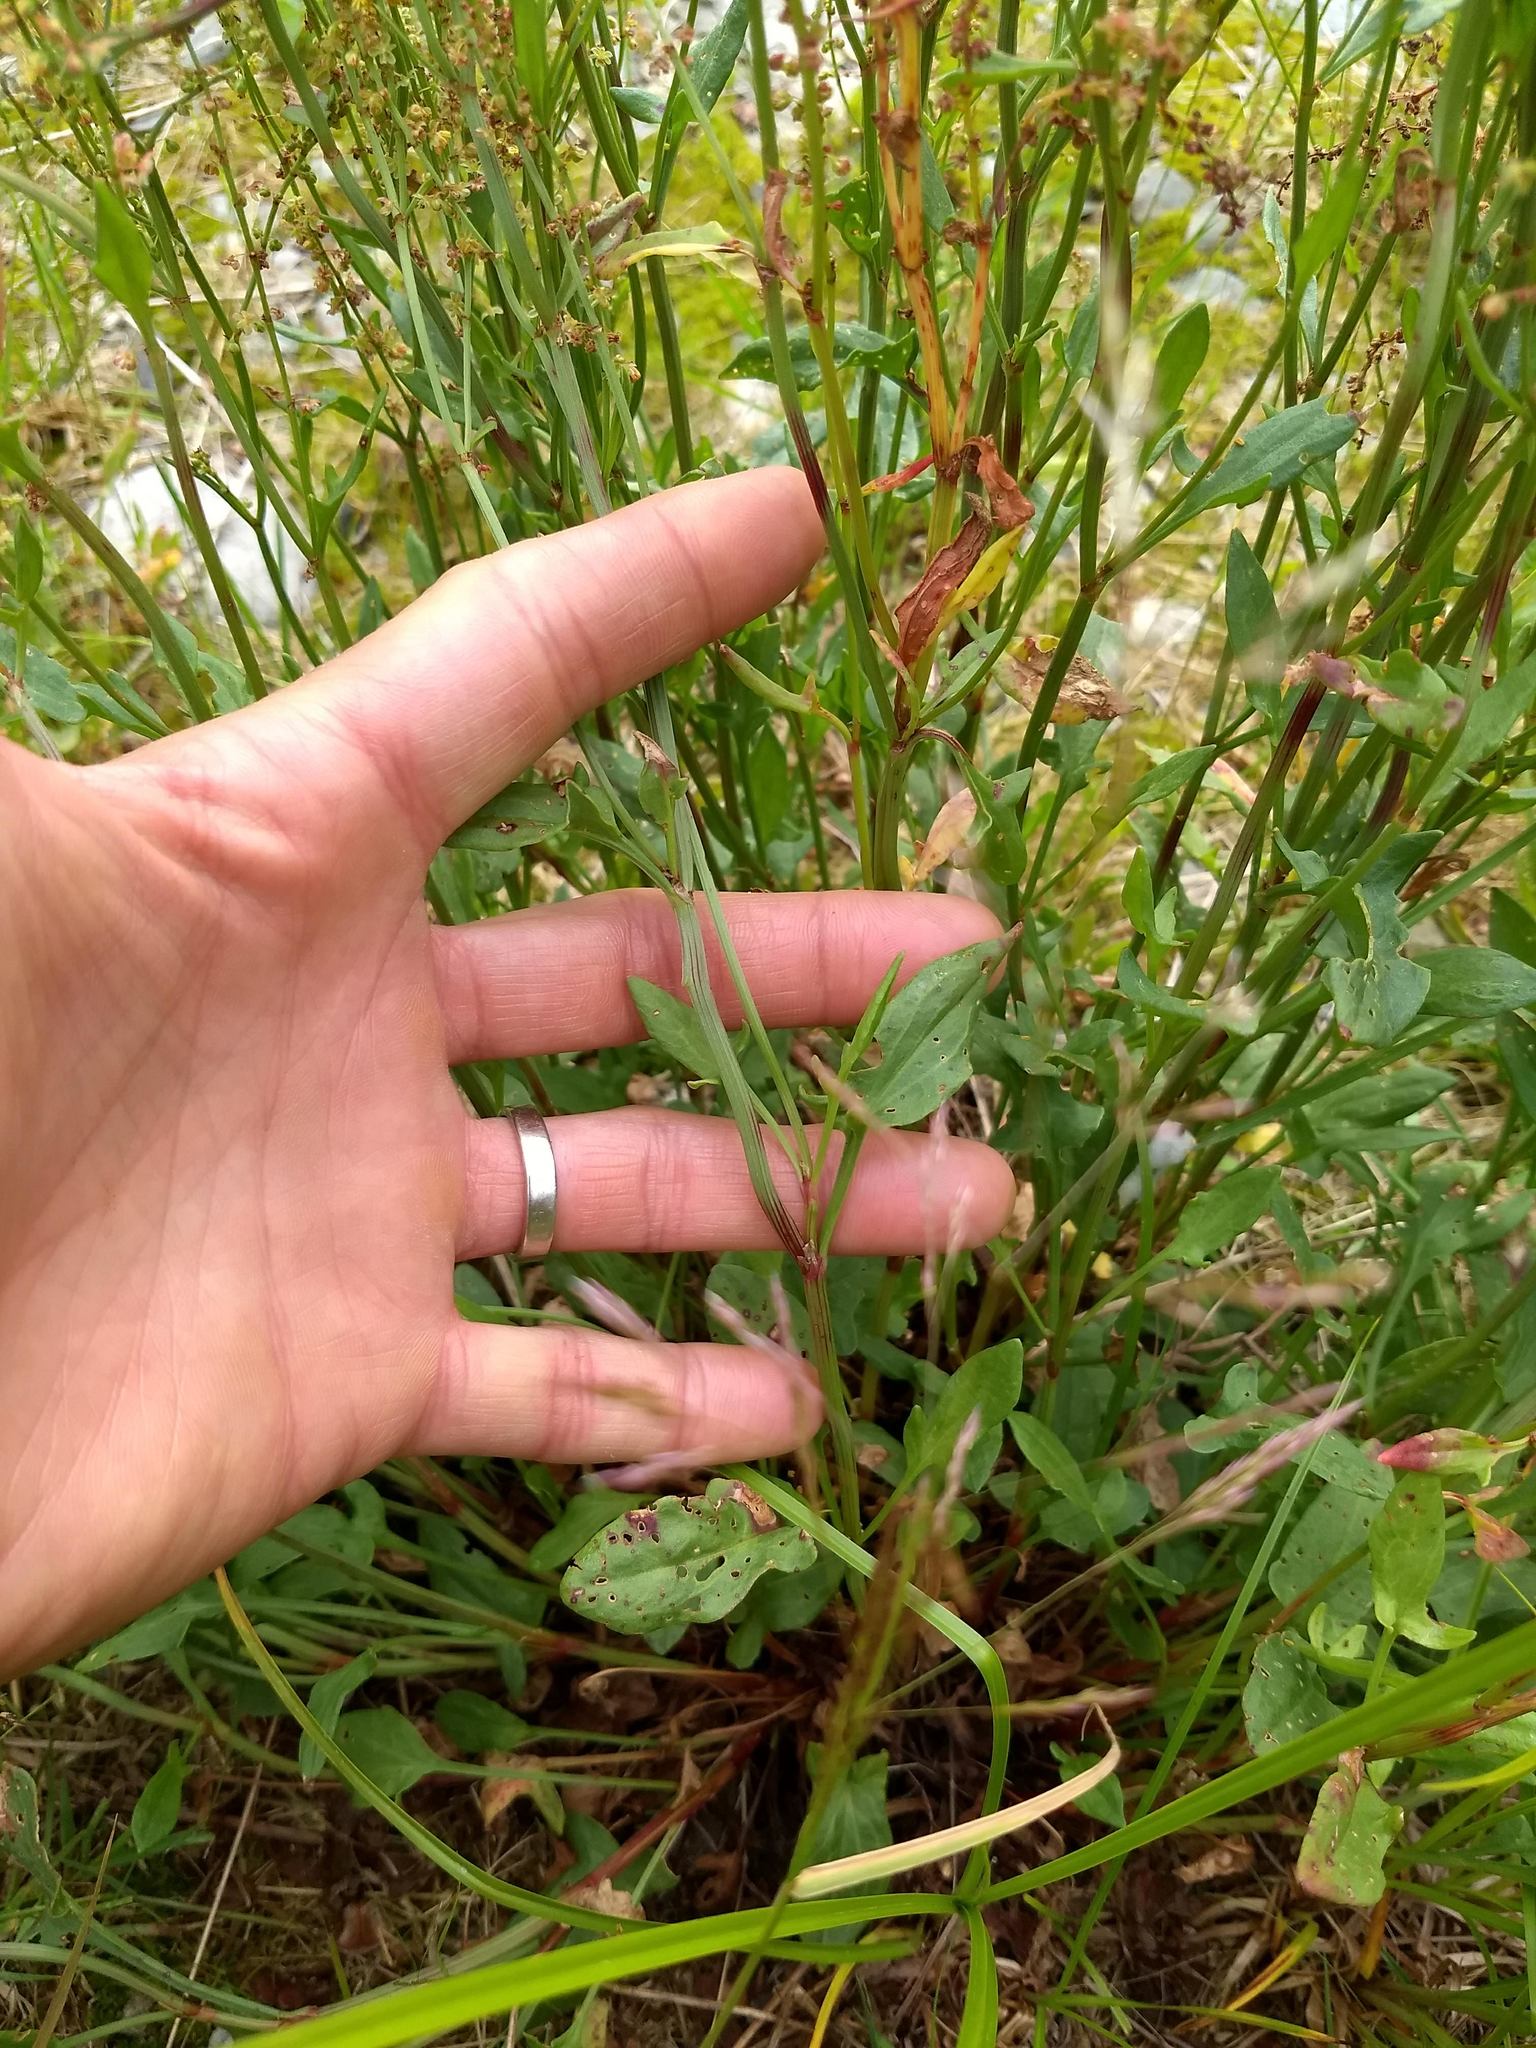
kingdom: Plantae
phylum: Tracheophyta
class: Magnoliopsida
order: Caryophyllales
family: Polygonaceae
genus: Rumex
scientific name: Rumex acetosella
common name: Common sheep sorrel
